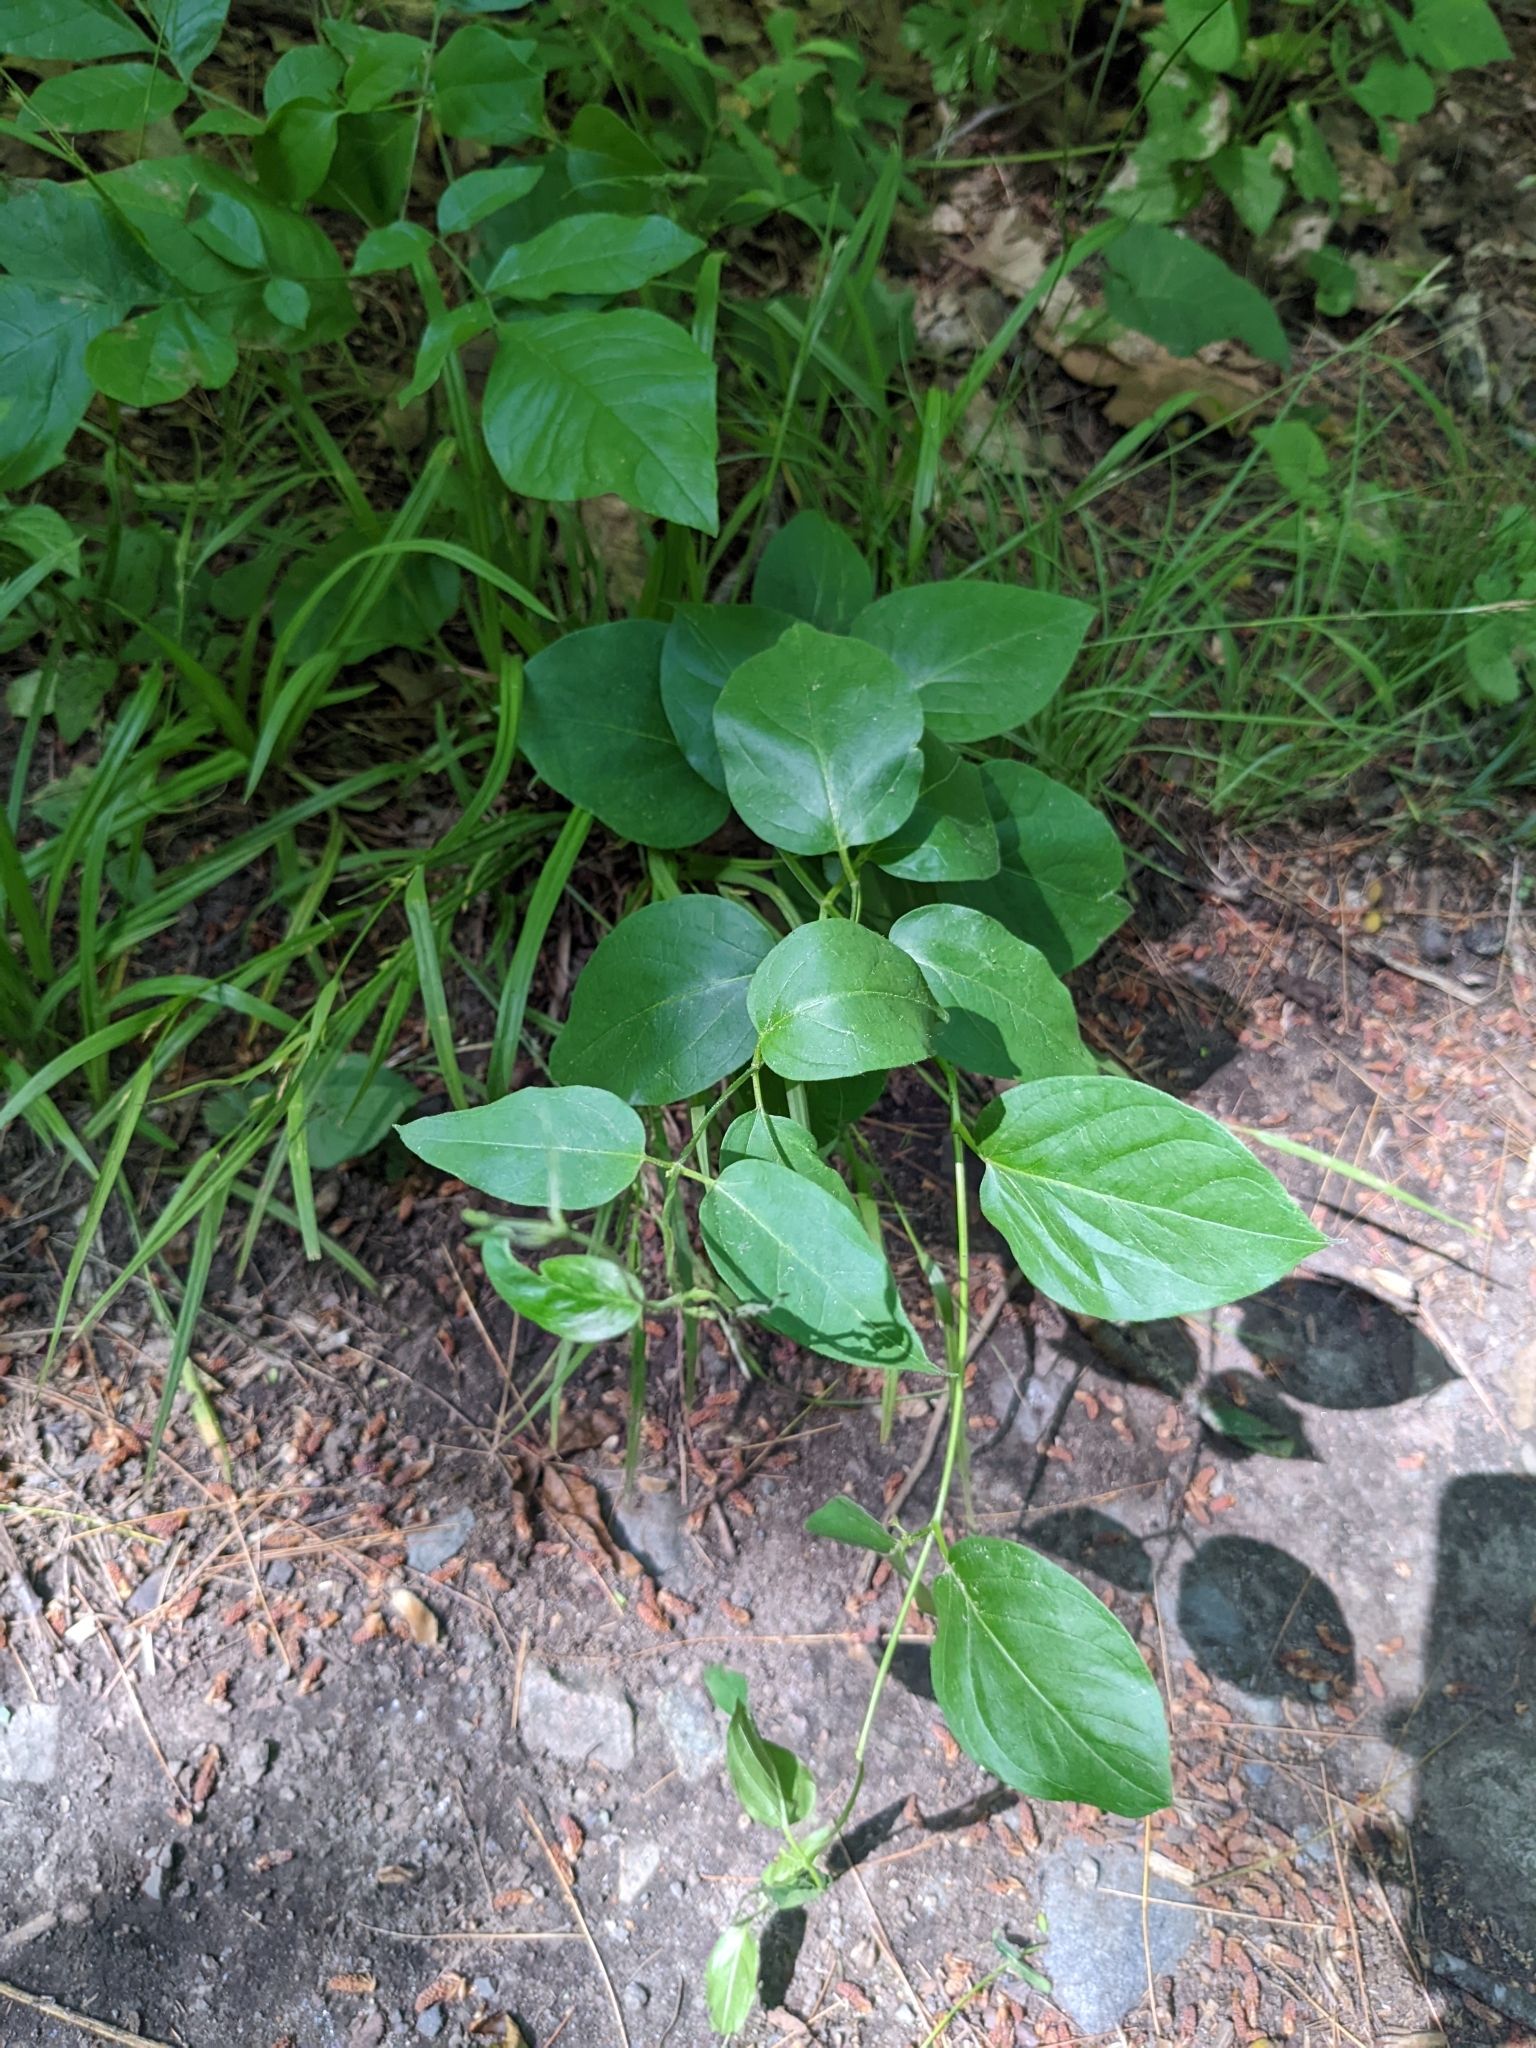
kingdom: Plantae
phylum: Tracheophyta
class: Magnoliopsida
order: Gentianales
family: Apocynaceae
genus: Vincetoxicum
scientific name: Vincetoxicum nigrum
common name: Black swallow-wort
